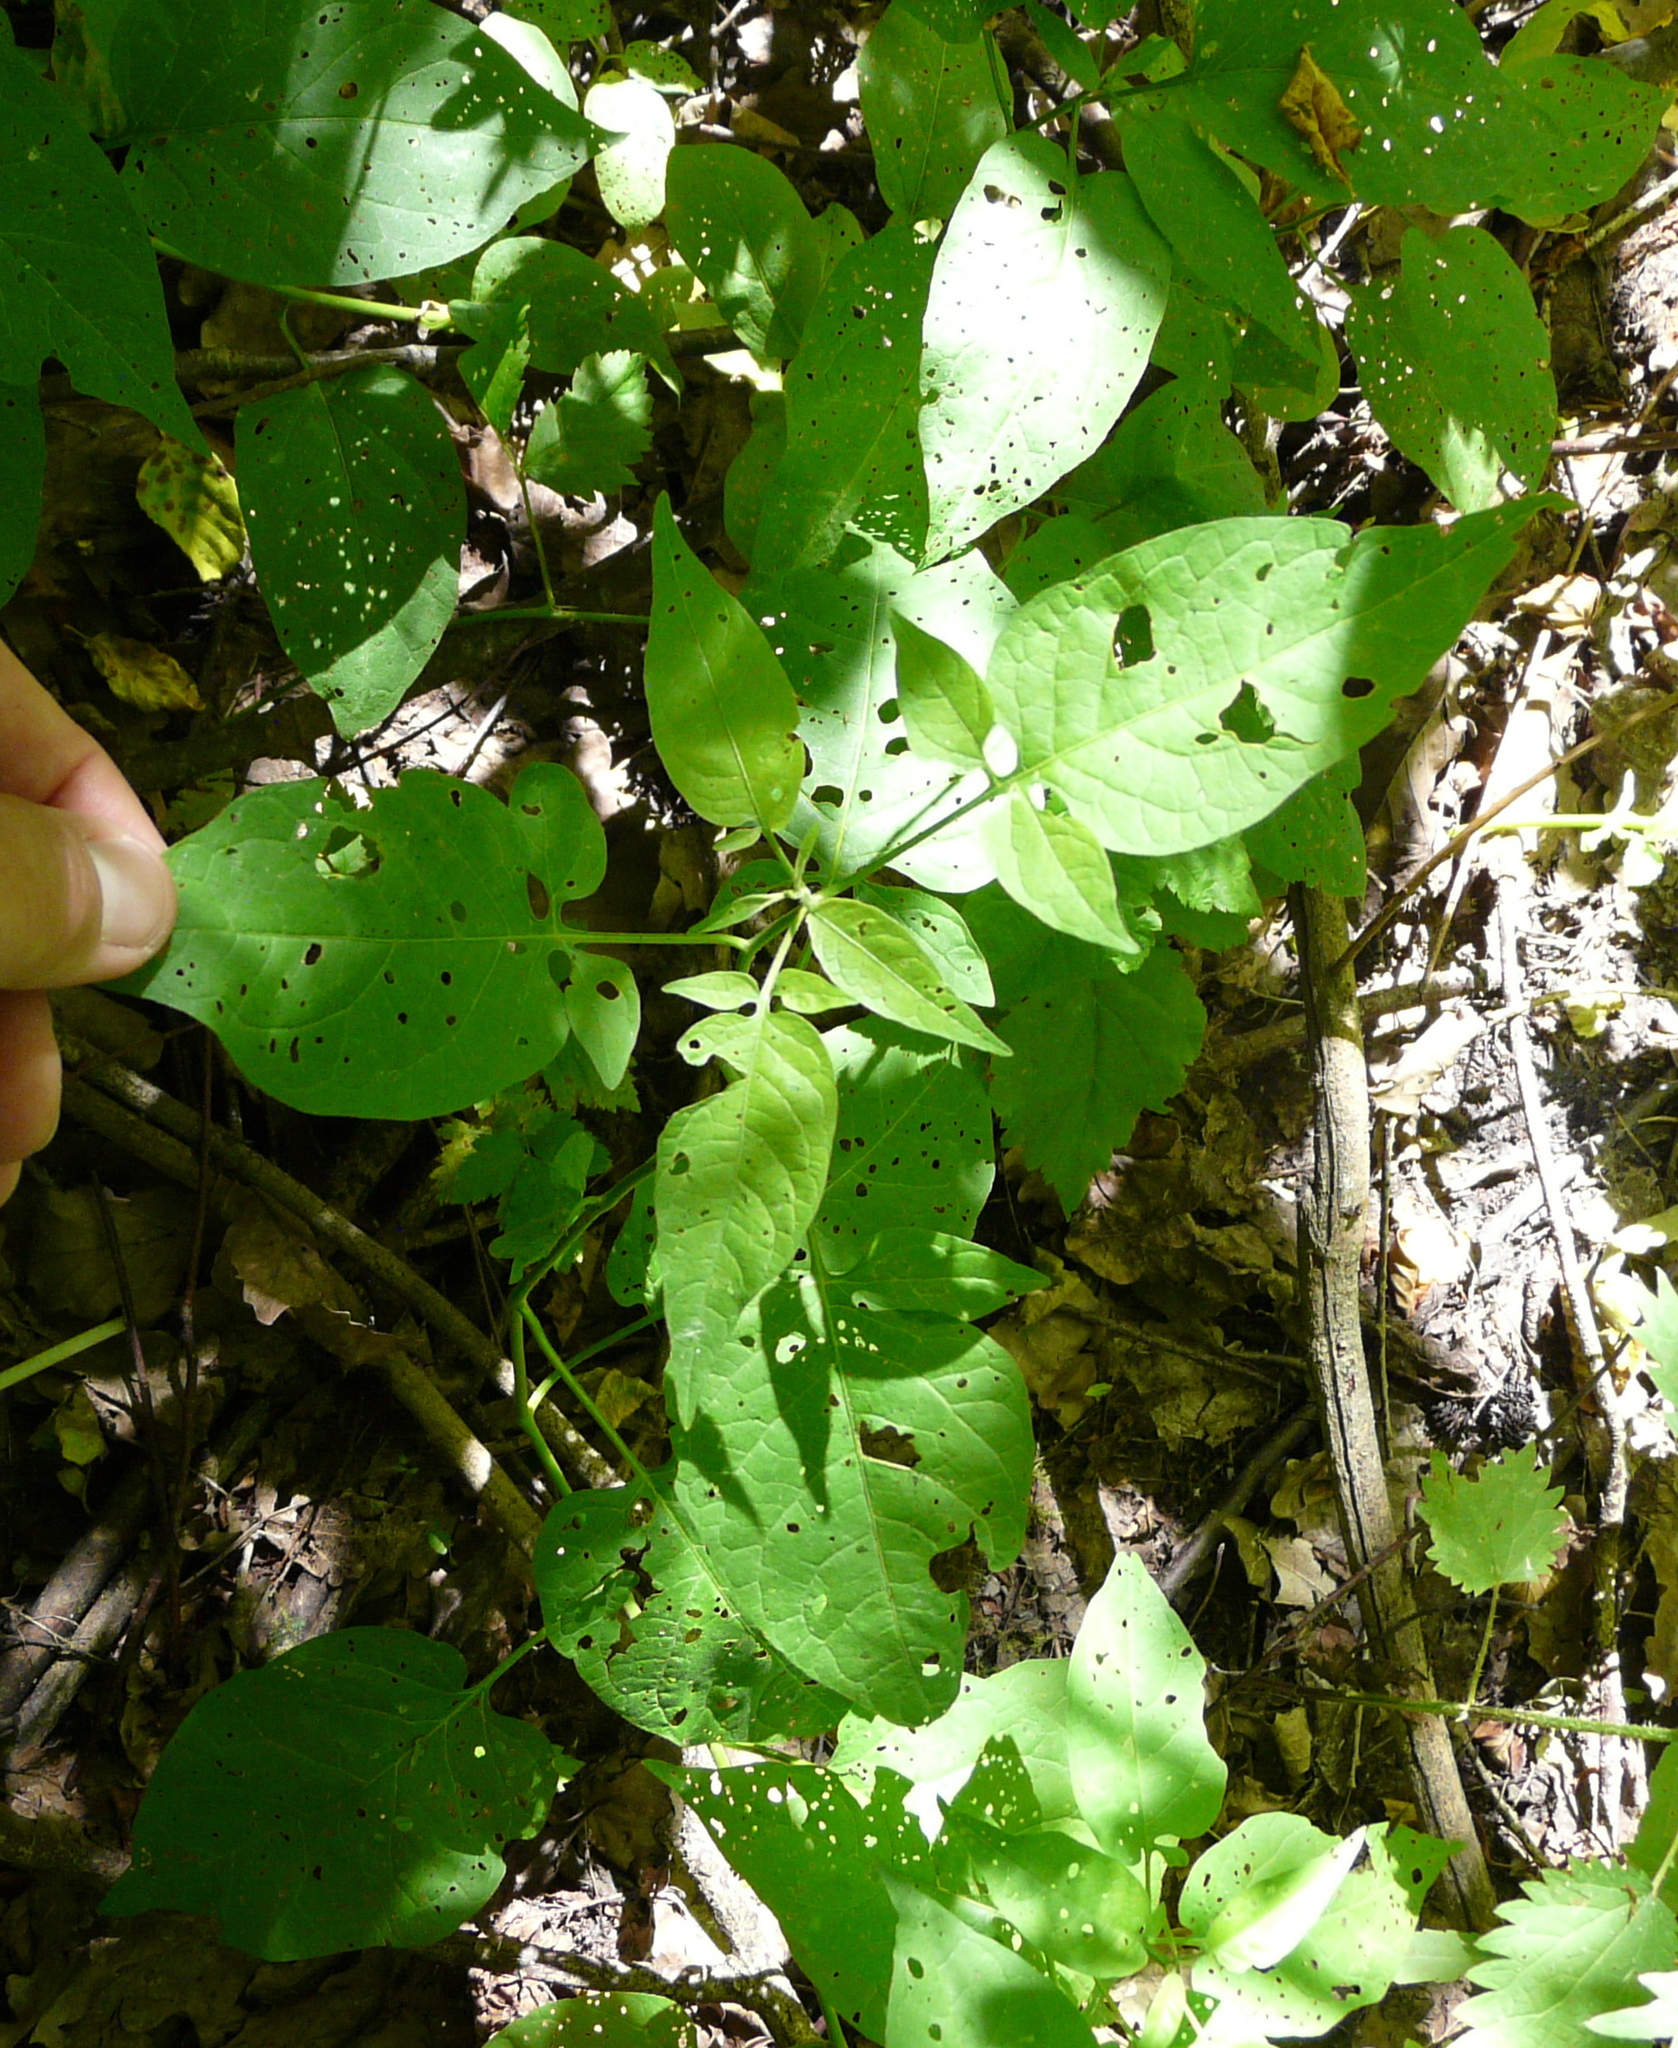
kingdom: Plantae
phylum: Tracheophyta
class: Magnoliopsida
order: Solanales
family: Solanaceae
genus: Solanum
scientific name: Solanum dulcamara
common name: Climbing nightshade
